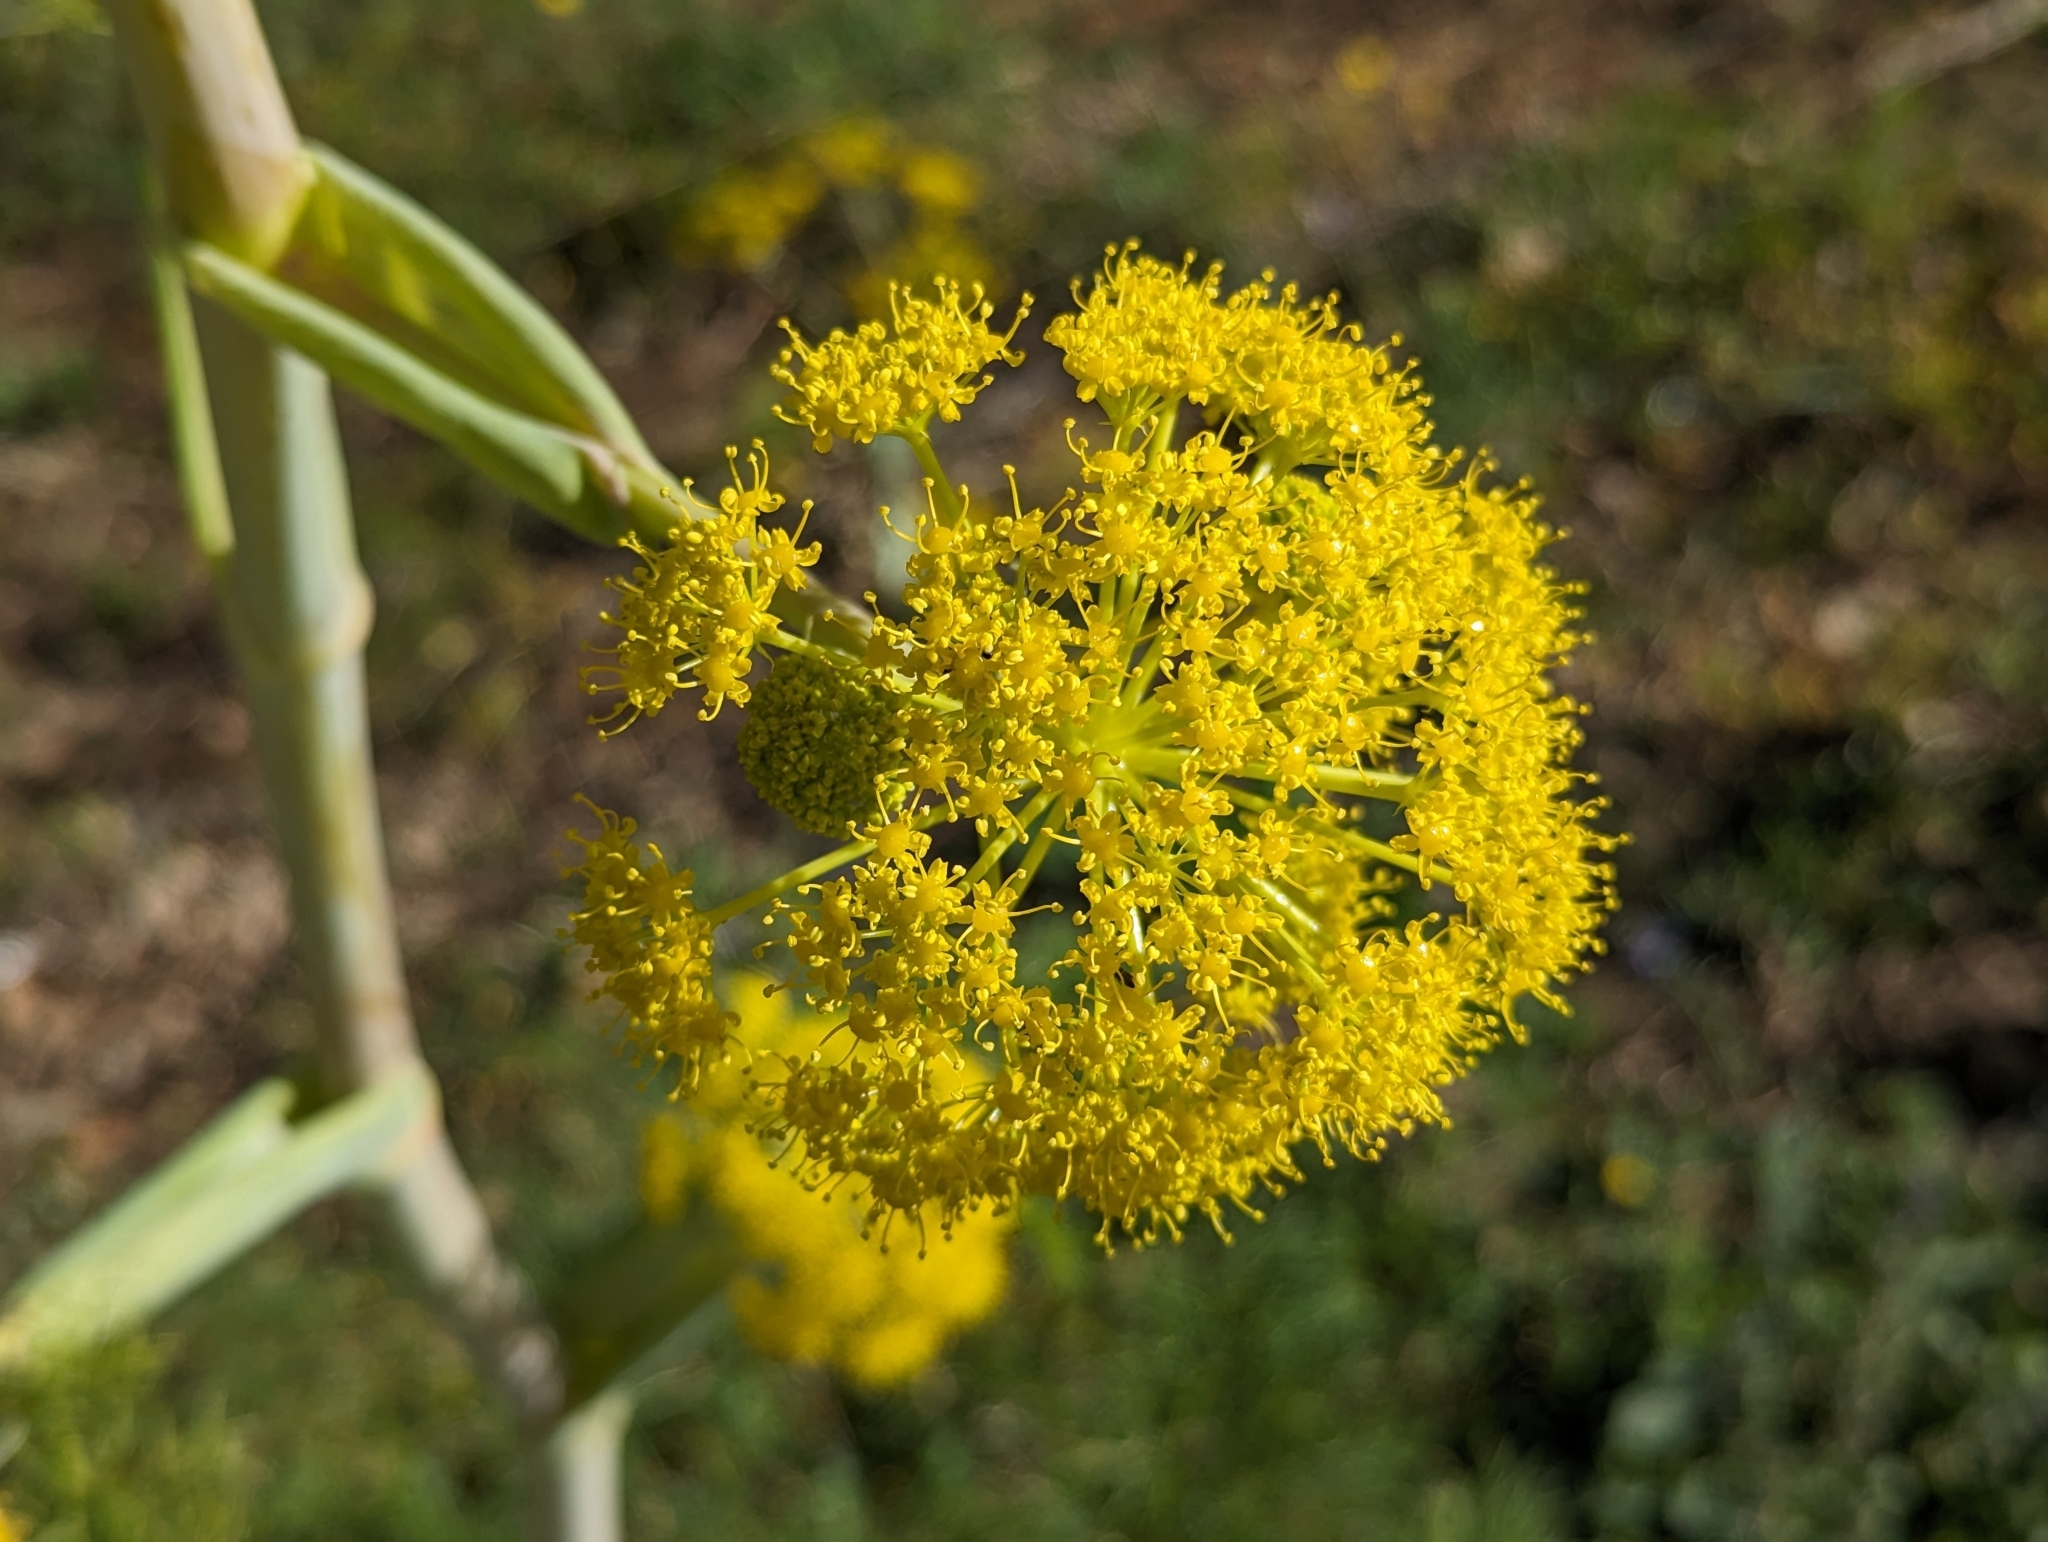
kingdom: Plantae
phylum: Tracheophyta
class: Magnoliopsida
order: Apiales
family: Apiaceae
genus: Ferula
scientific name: Ferula communis
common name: Giant fennel
